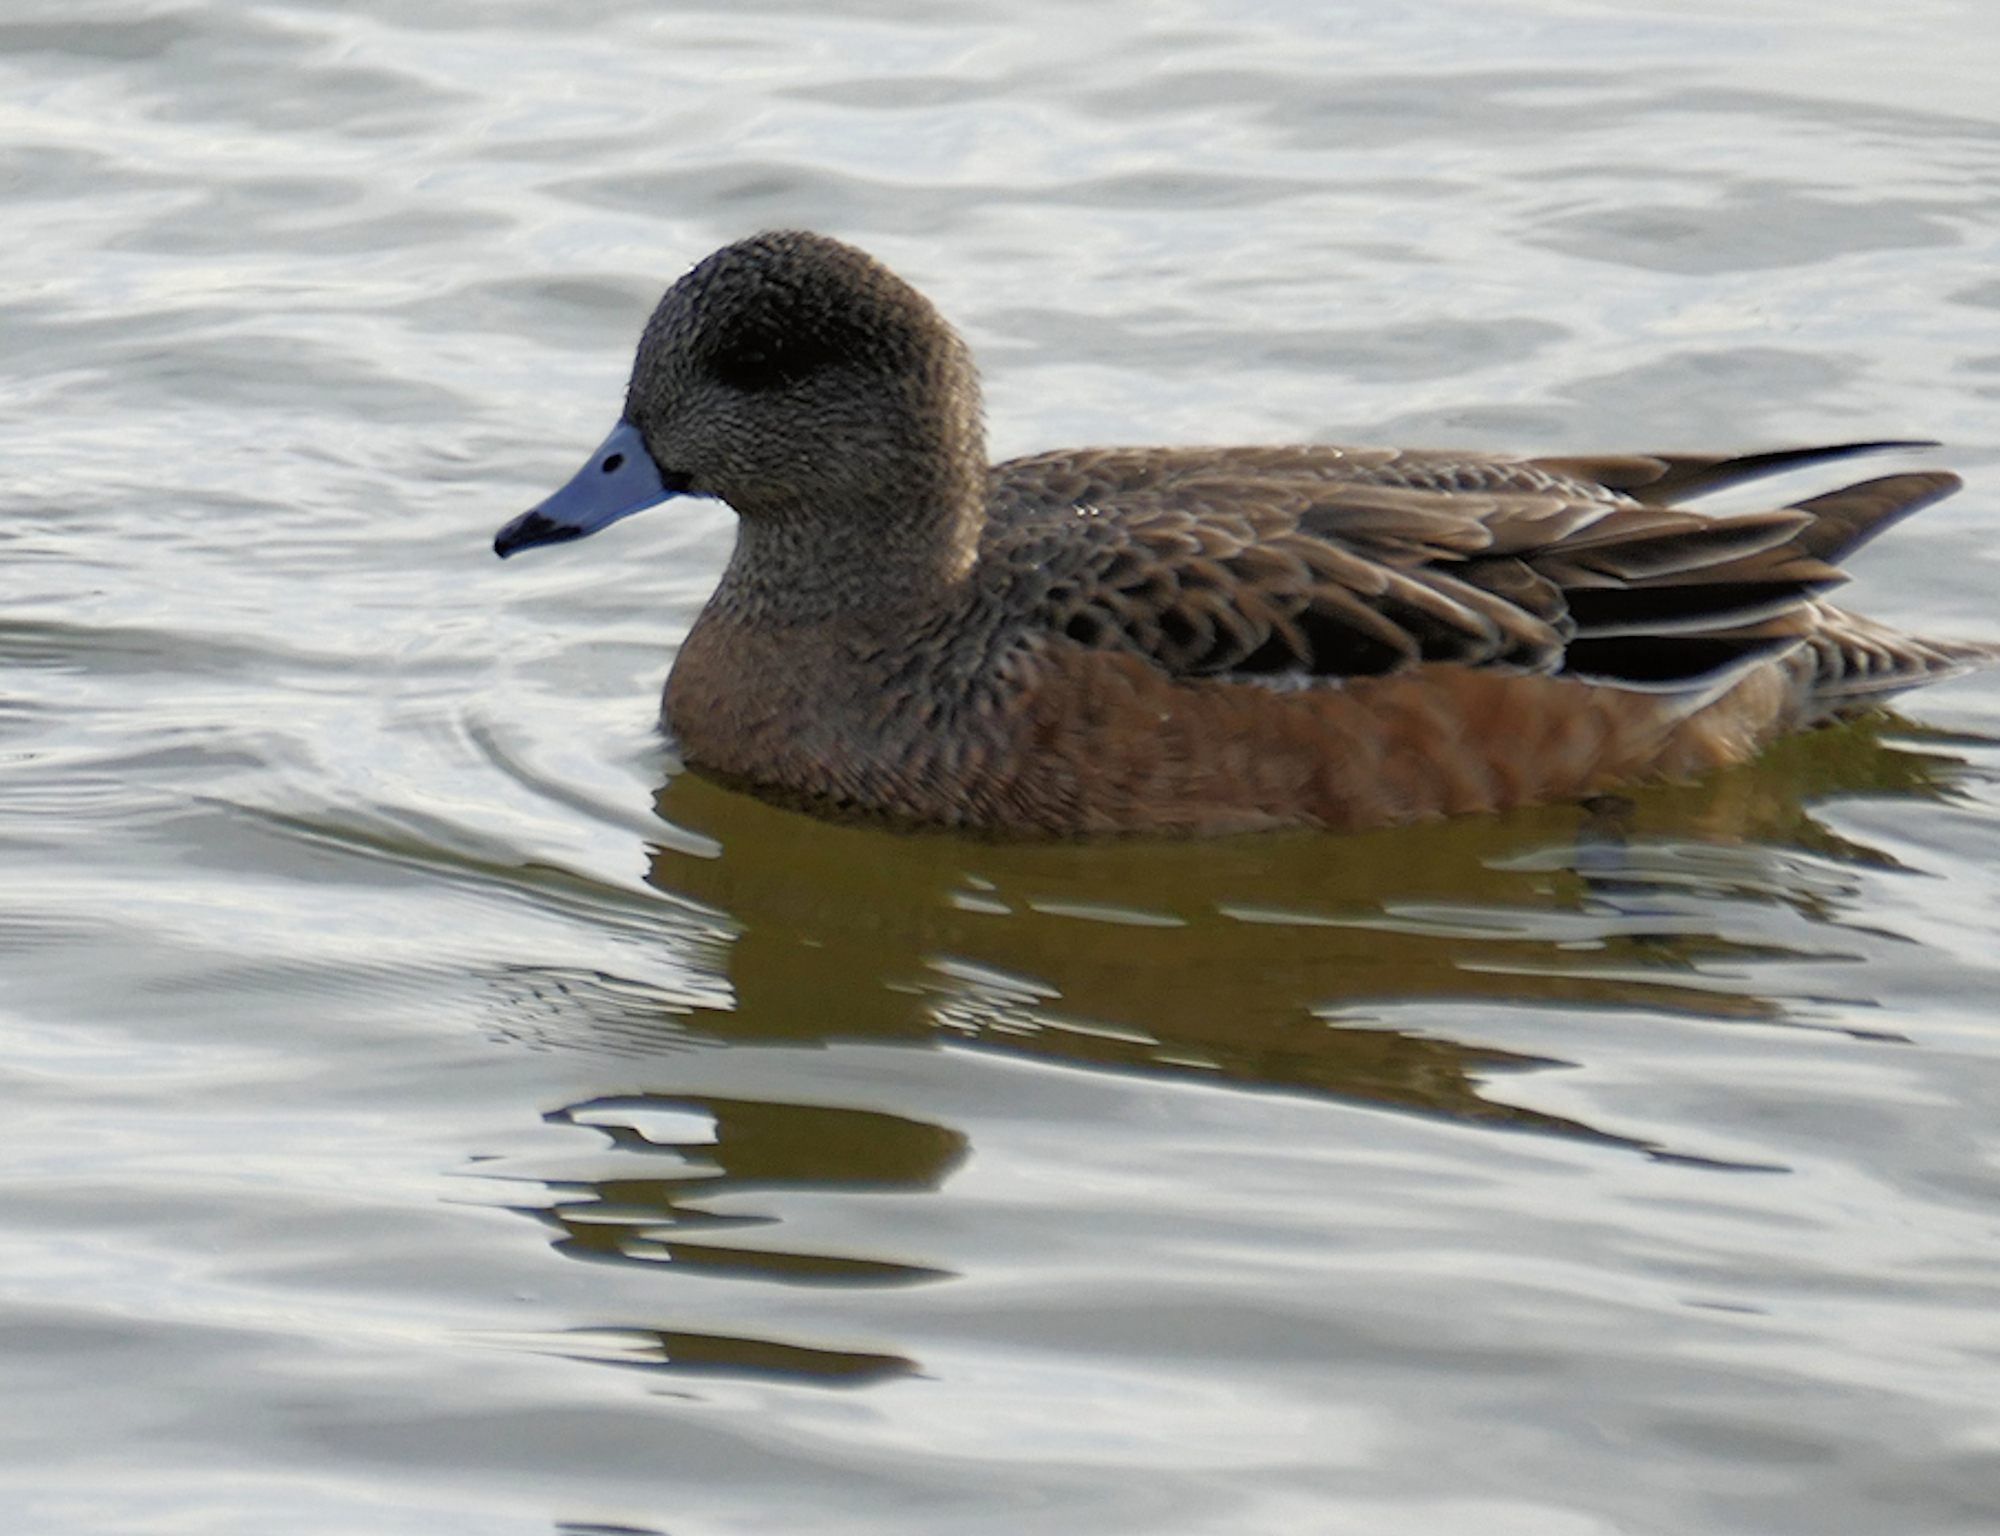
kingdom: Animalia
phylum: Chordata
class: Aves
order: Anseriformes
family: Anatidae
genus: Mareca
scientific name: Mareca americana
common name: American wigeon
